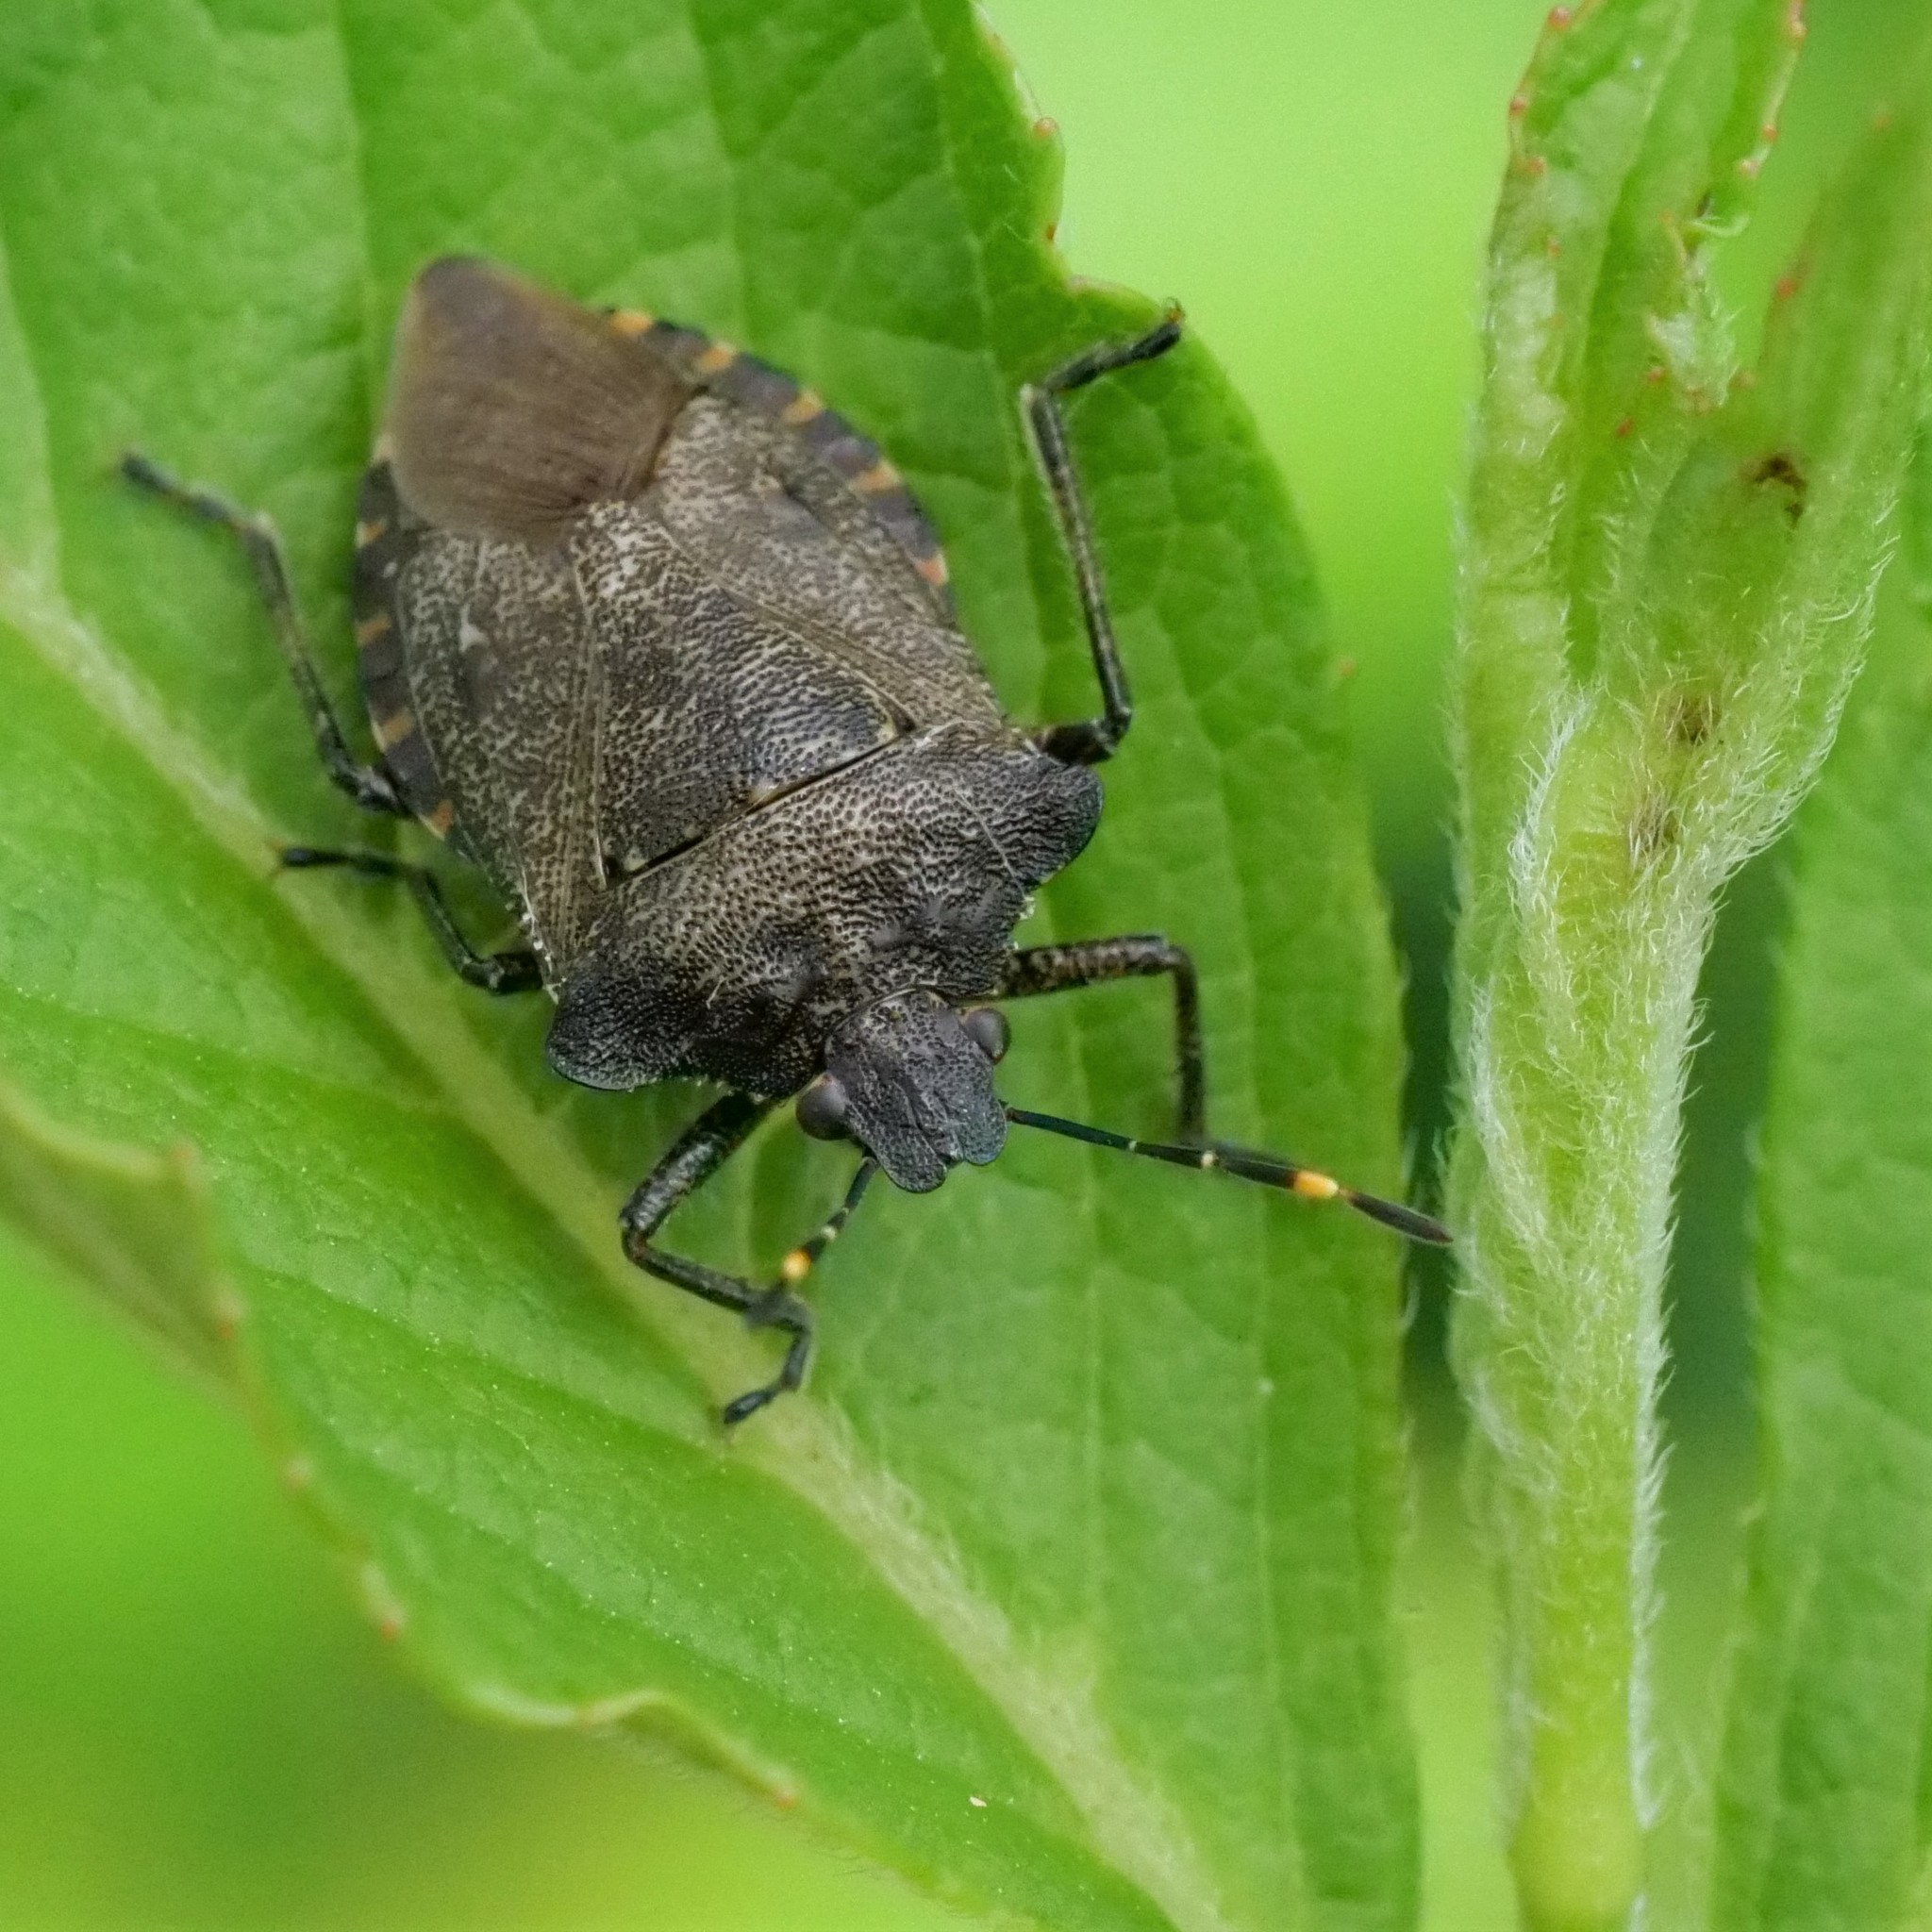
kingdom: Animalia
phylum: Arthropoda
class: Insecta
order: Hemiptera
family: Pentatomidae
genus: Troilus
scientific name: Troilus luridus
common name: Bronze shieldbug
